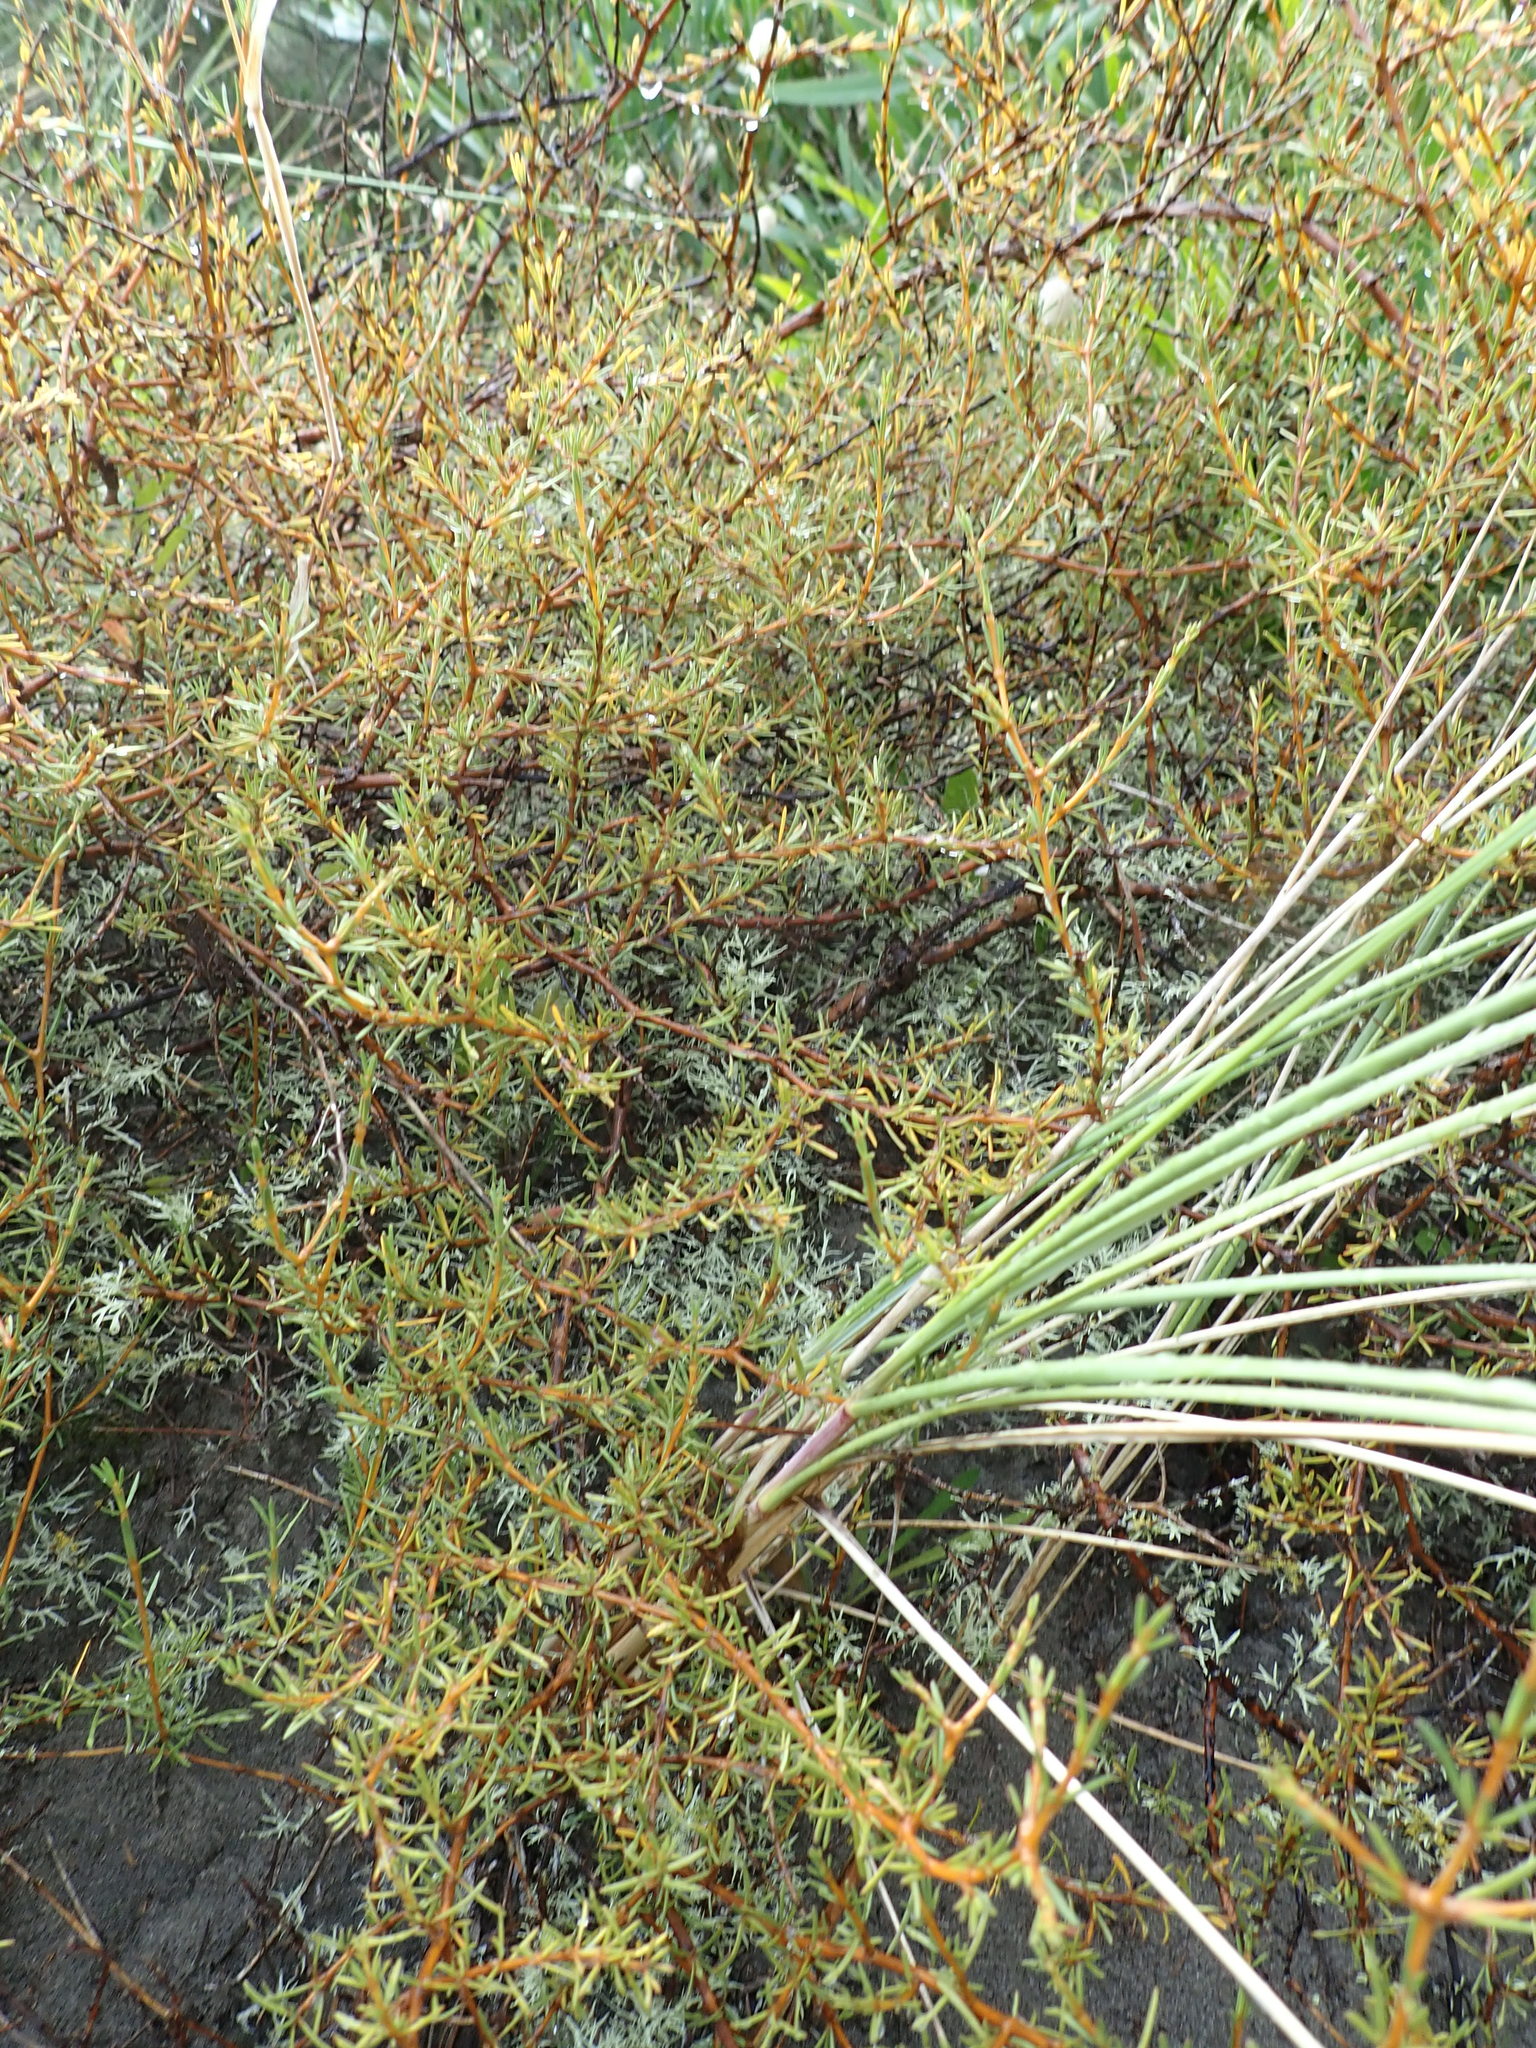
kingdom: Plantae
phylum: Tracheophyta
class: Magnoliopsida
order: Gentianales
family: Rubiaceae
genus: Coprosma
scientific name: Coprosma acerosa
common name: Sand coprosma
